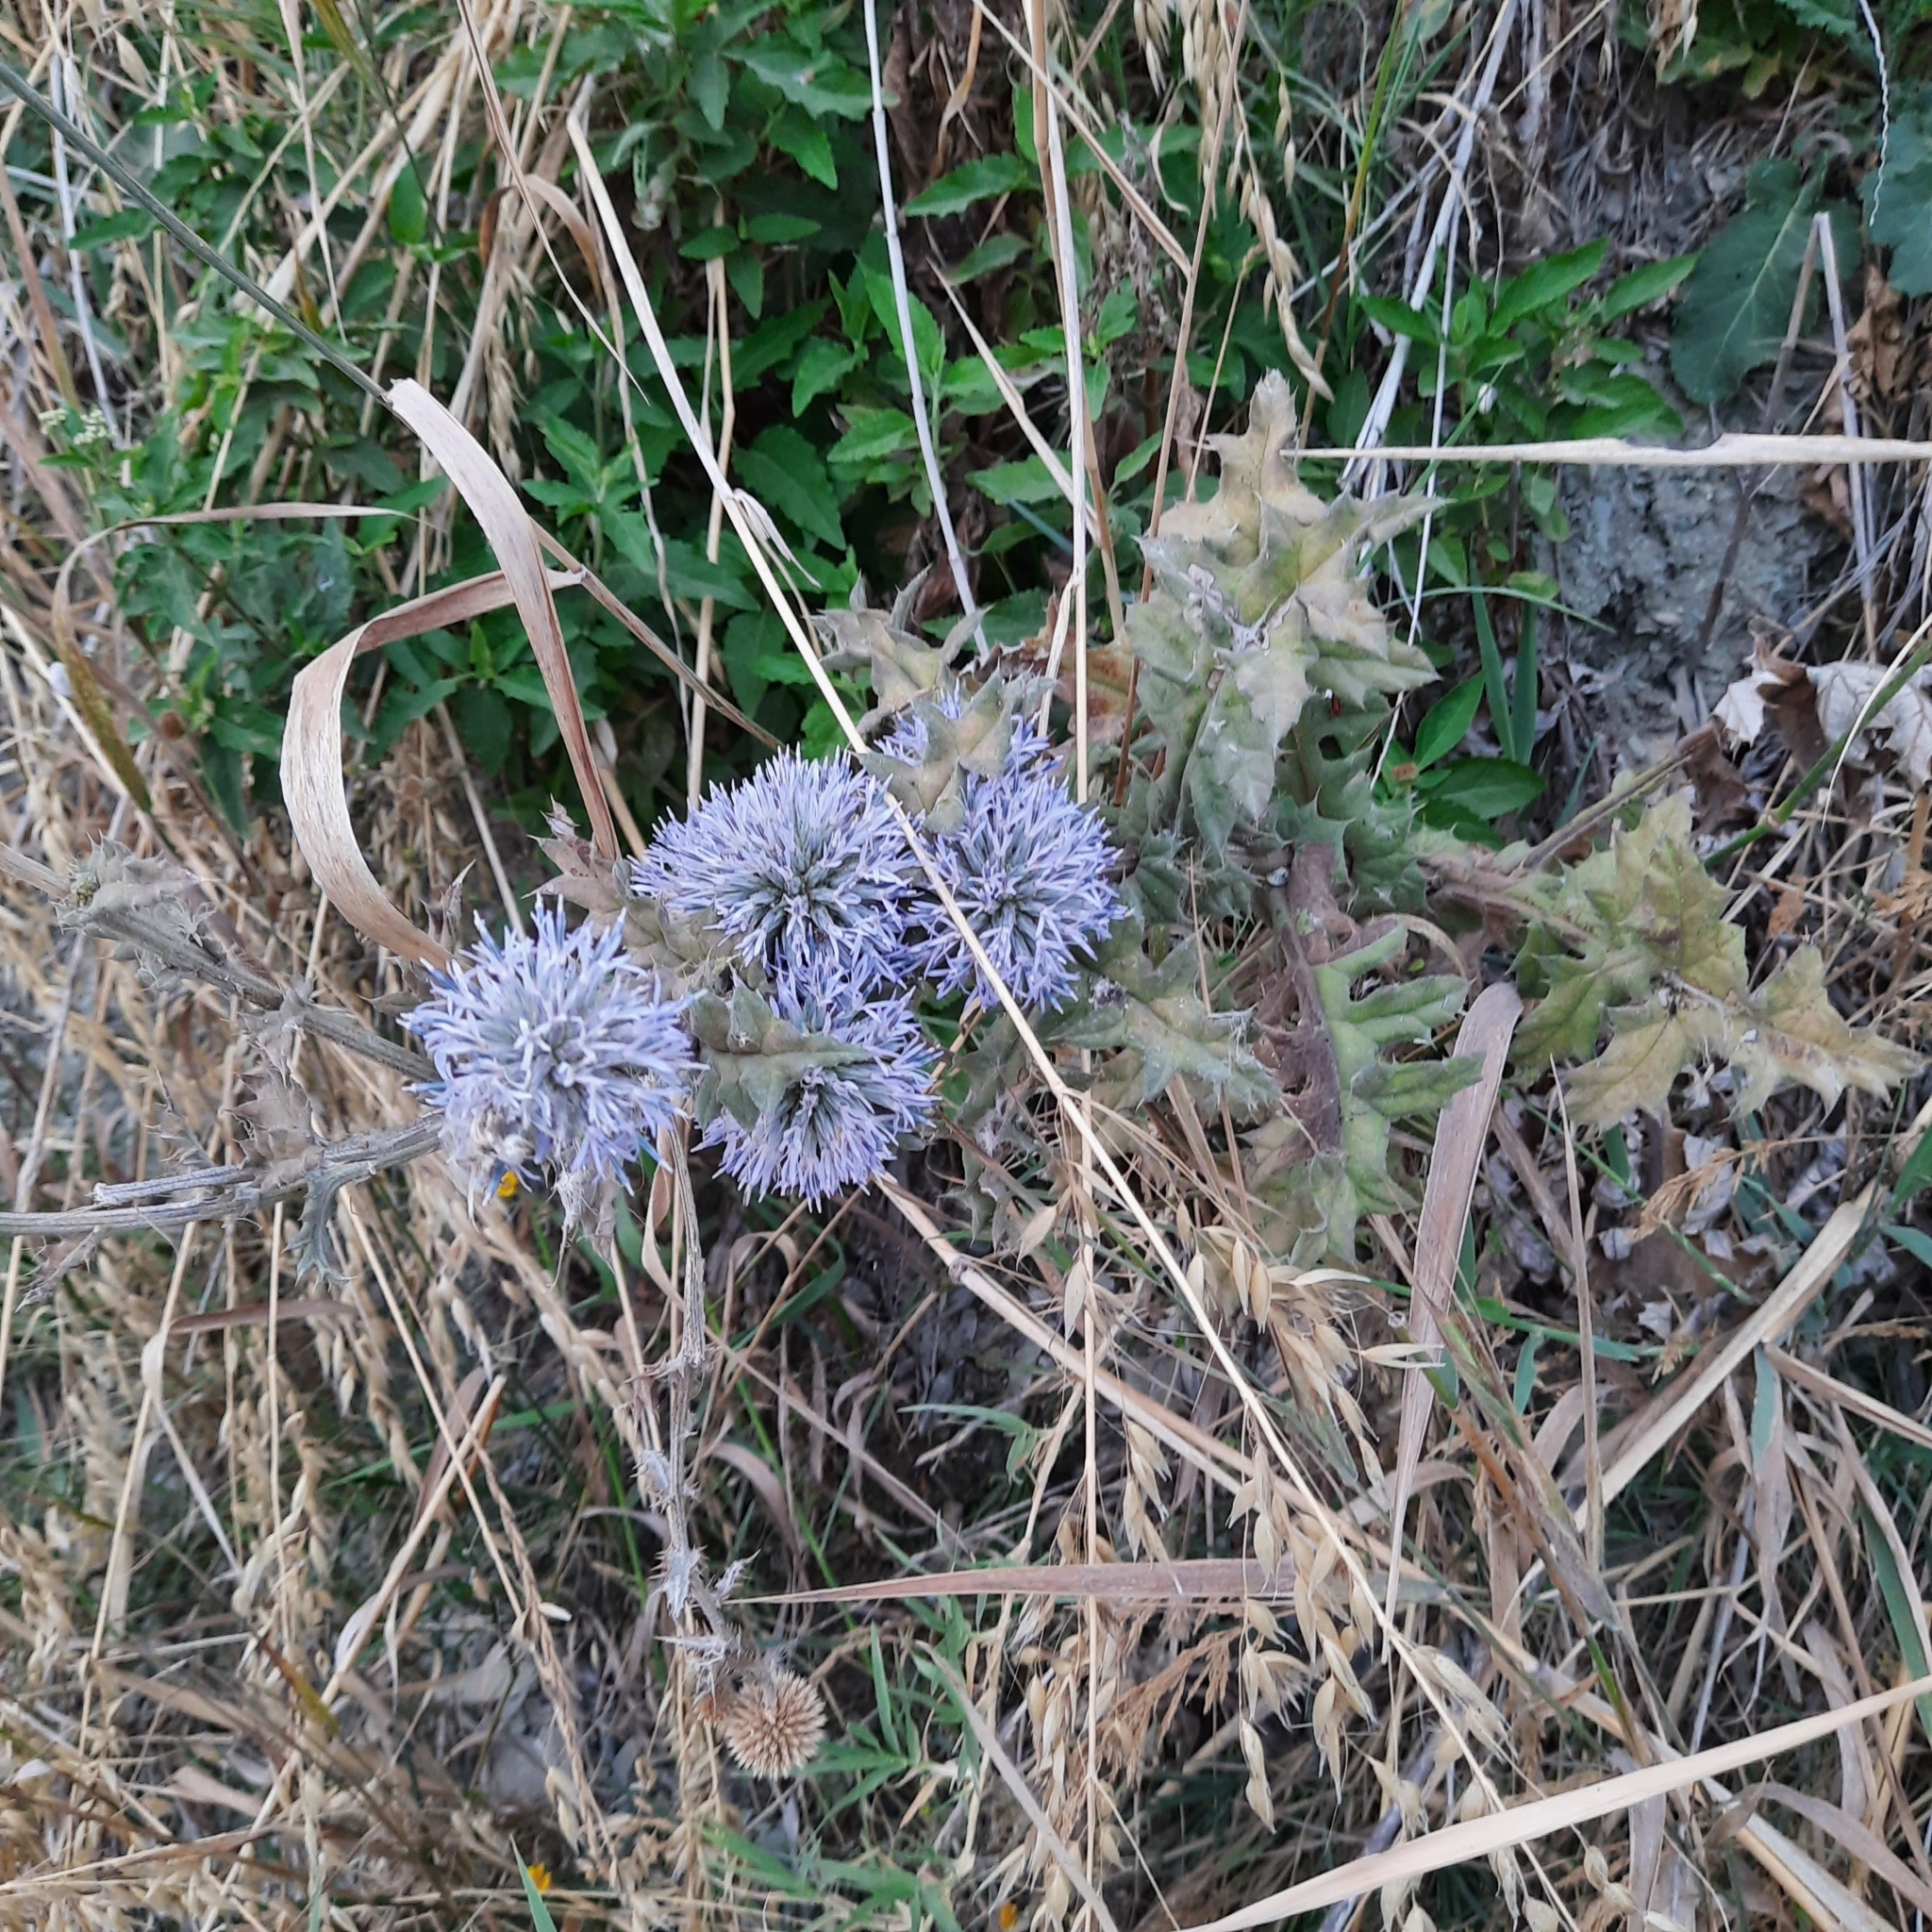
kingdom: Plantae
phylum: Tracheophyta
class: Magnoliopsida
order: Asterales
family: Asteraceae
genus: Echinops
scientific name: Echinops ritro
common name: Globe thistle
